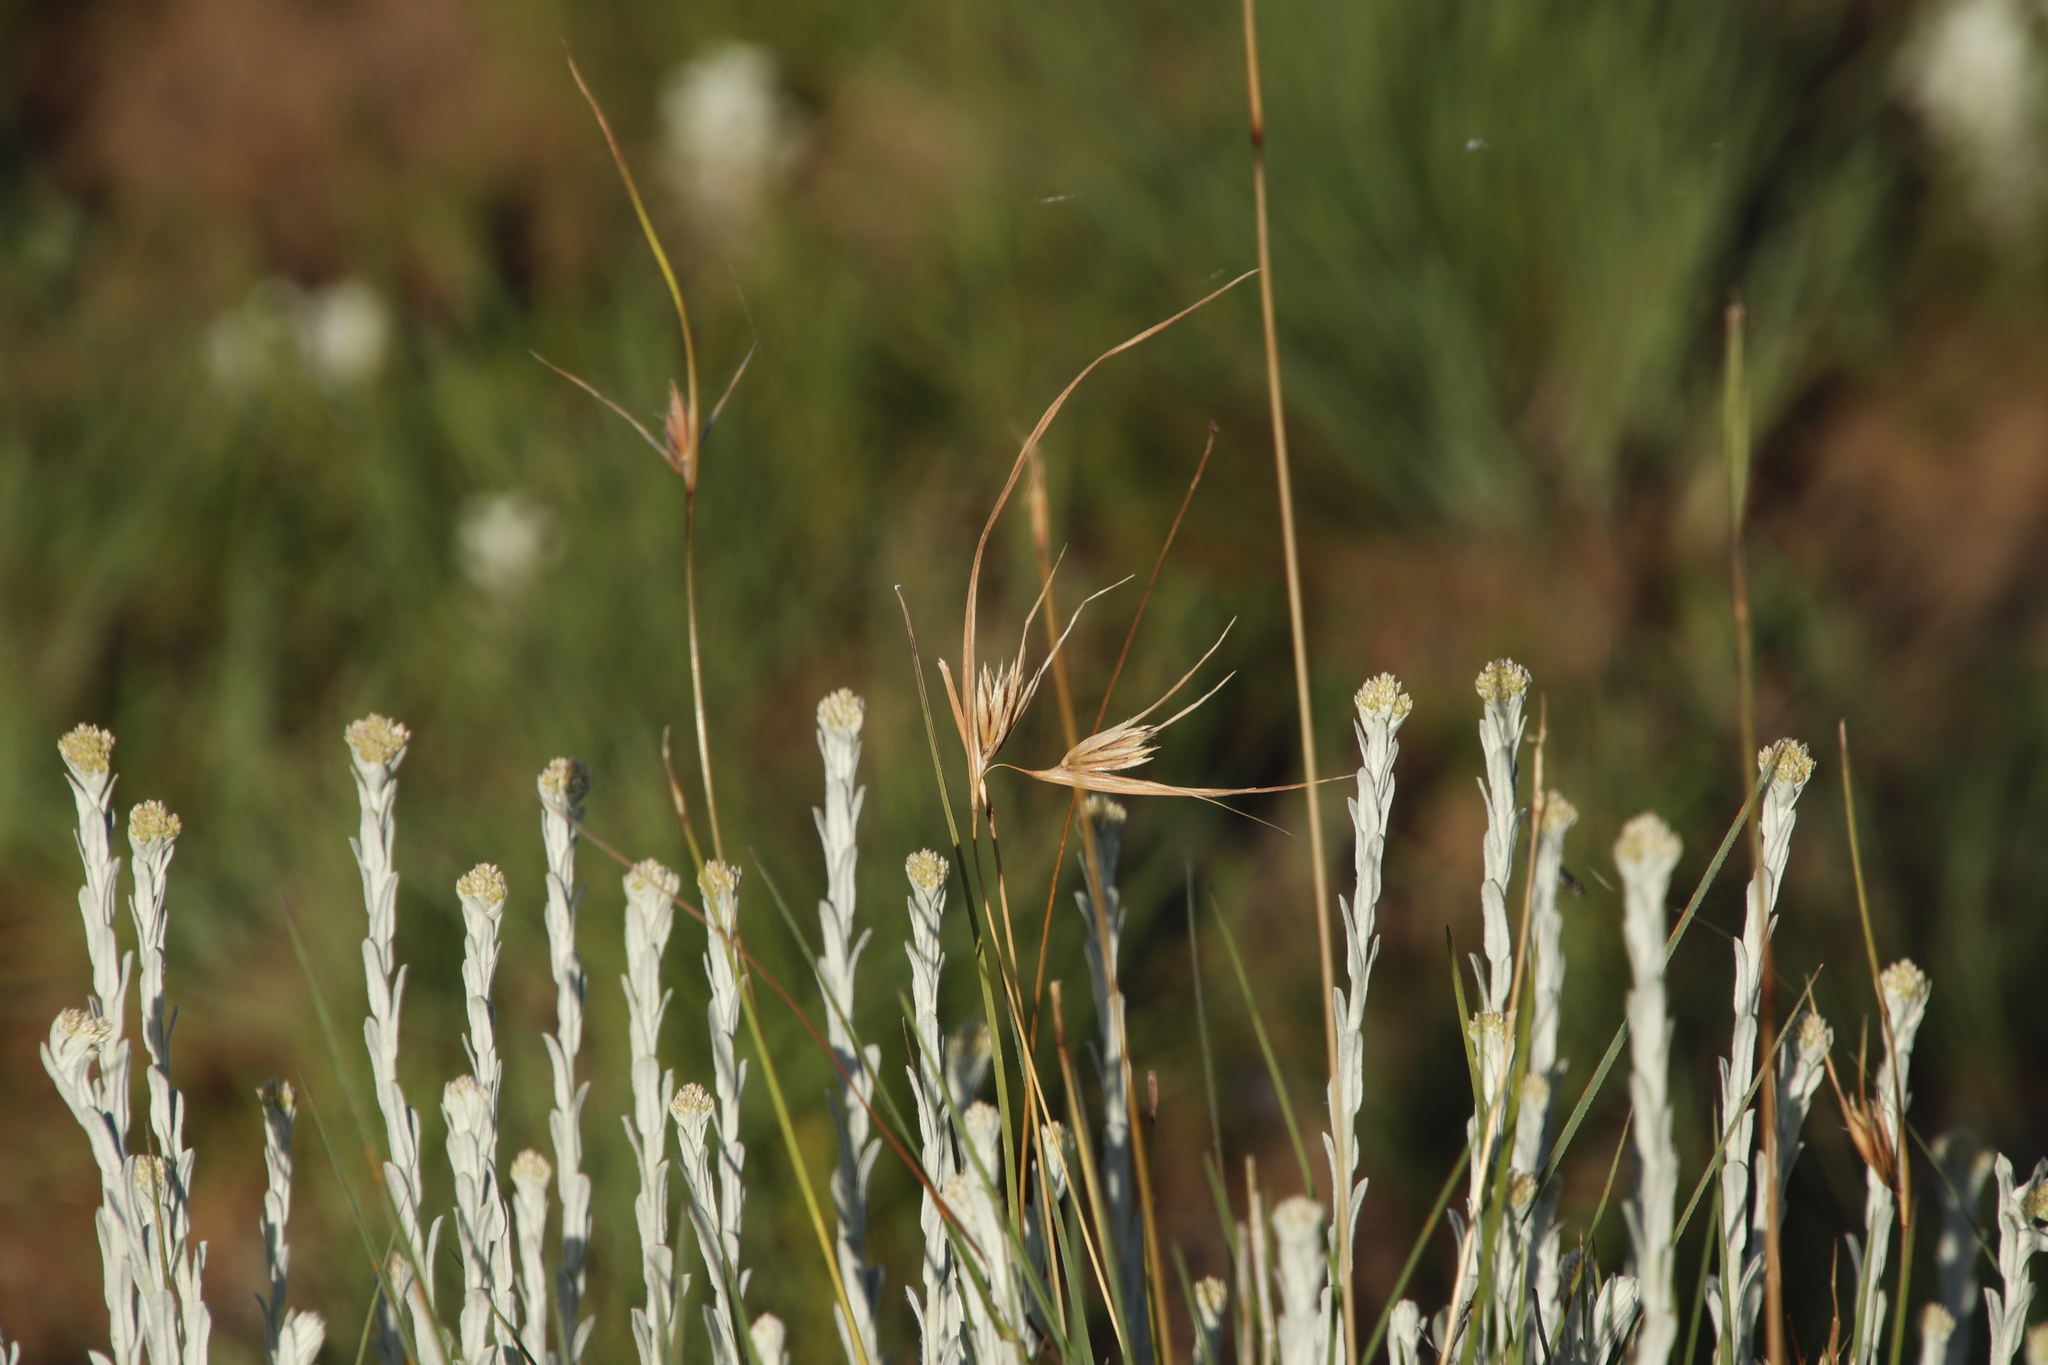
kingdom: Plantae
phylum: Tracheophyta
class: Liliopsida
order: Poales
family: Poaceae
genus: Themeda
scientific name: Themeda triandra
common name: Kangaroo grass
